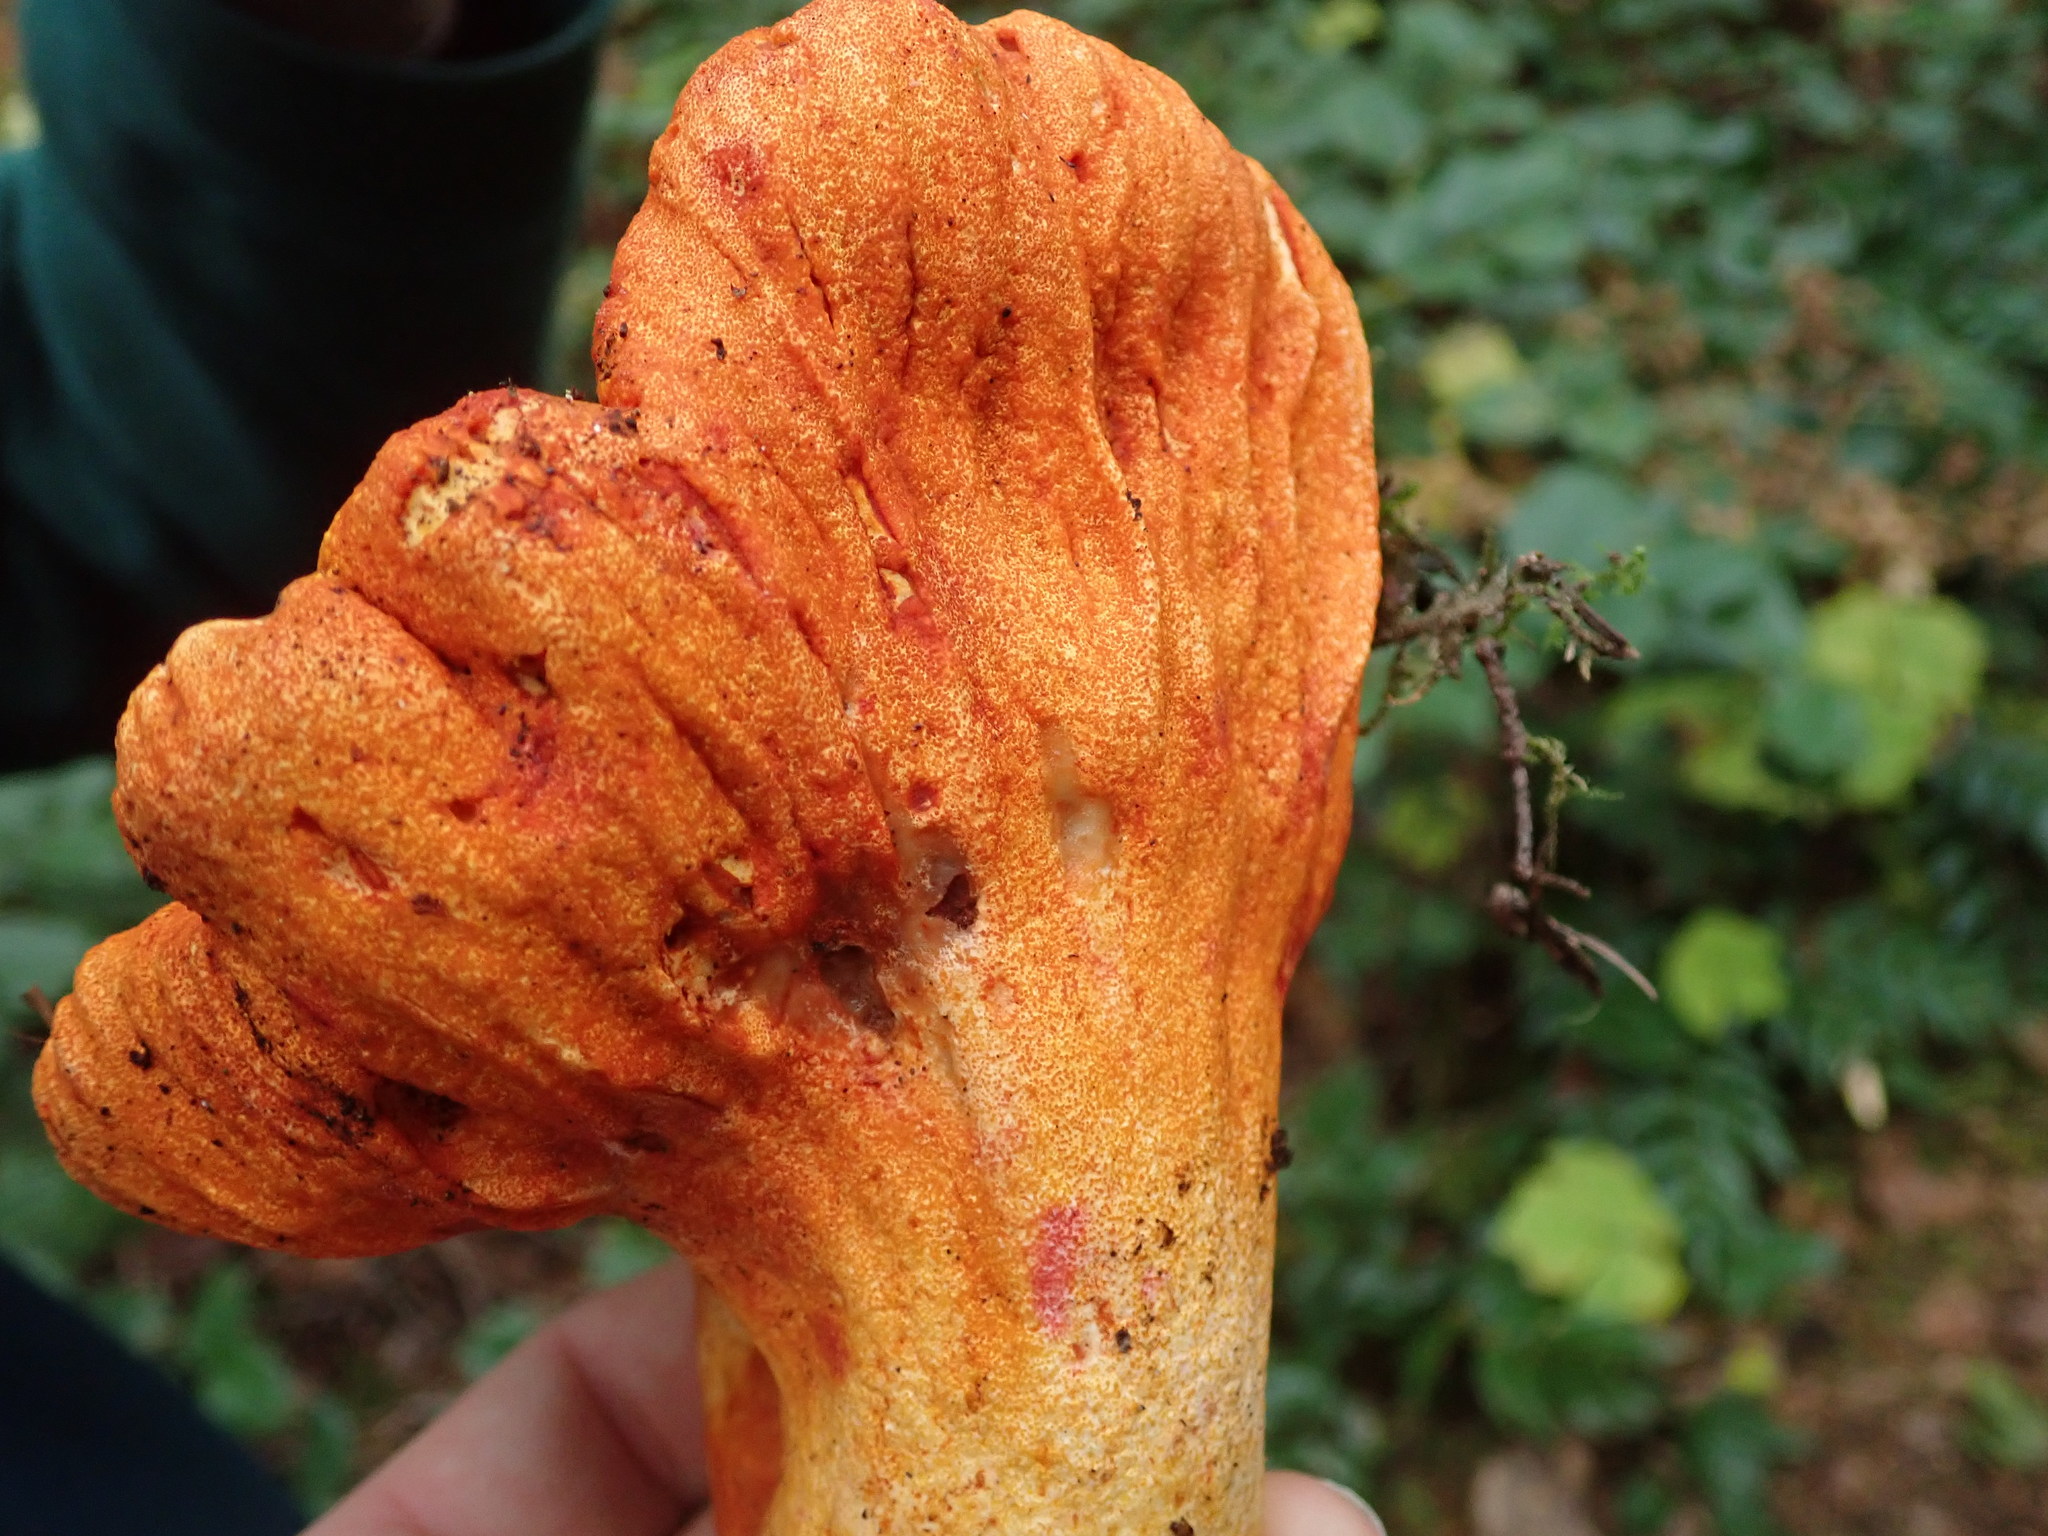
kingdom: Fungi
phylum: Ascomycota
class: Sordariomycetes
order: Hypocreales
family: Hypocreaceae
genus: Hypomyces
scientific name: Hypomyces lactifluorum
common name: Lobster mushroom
